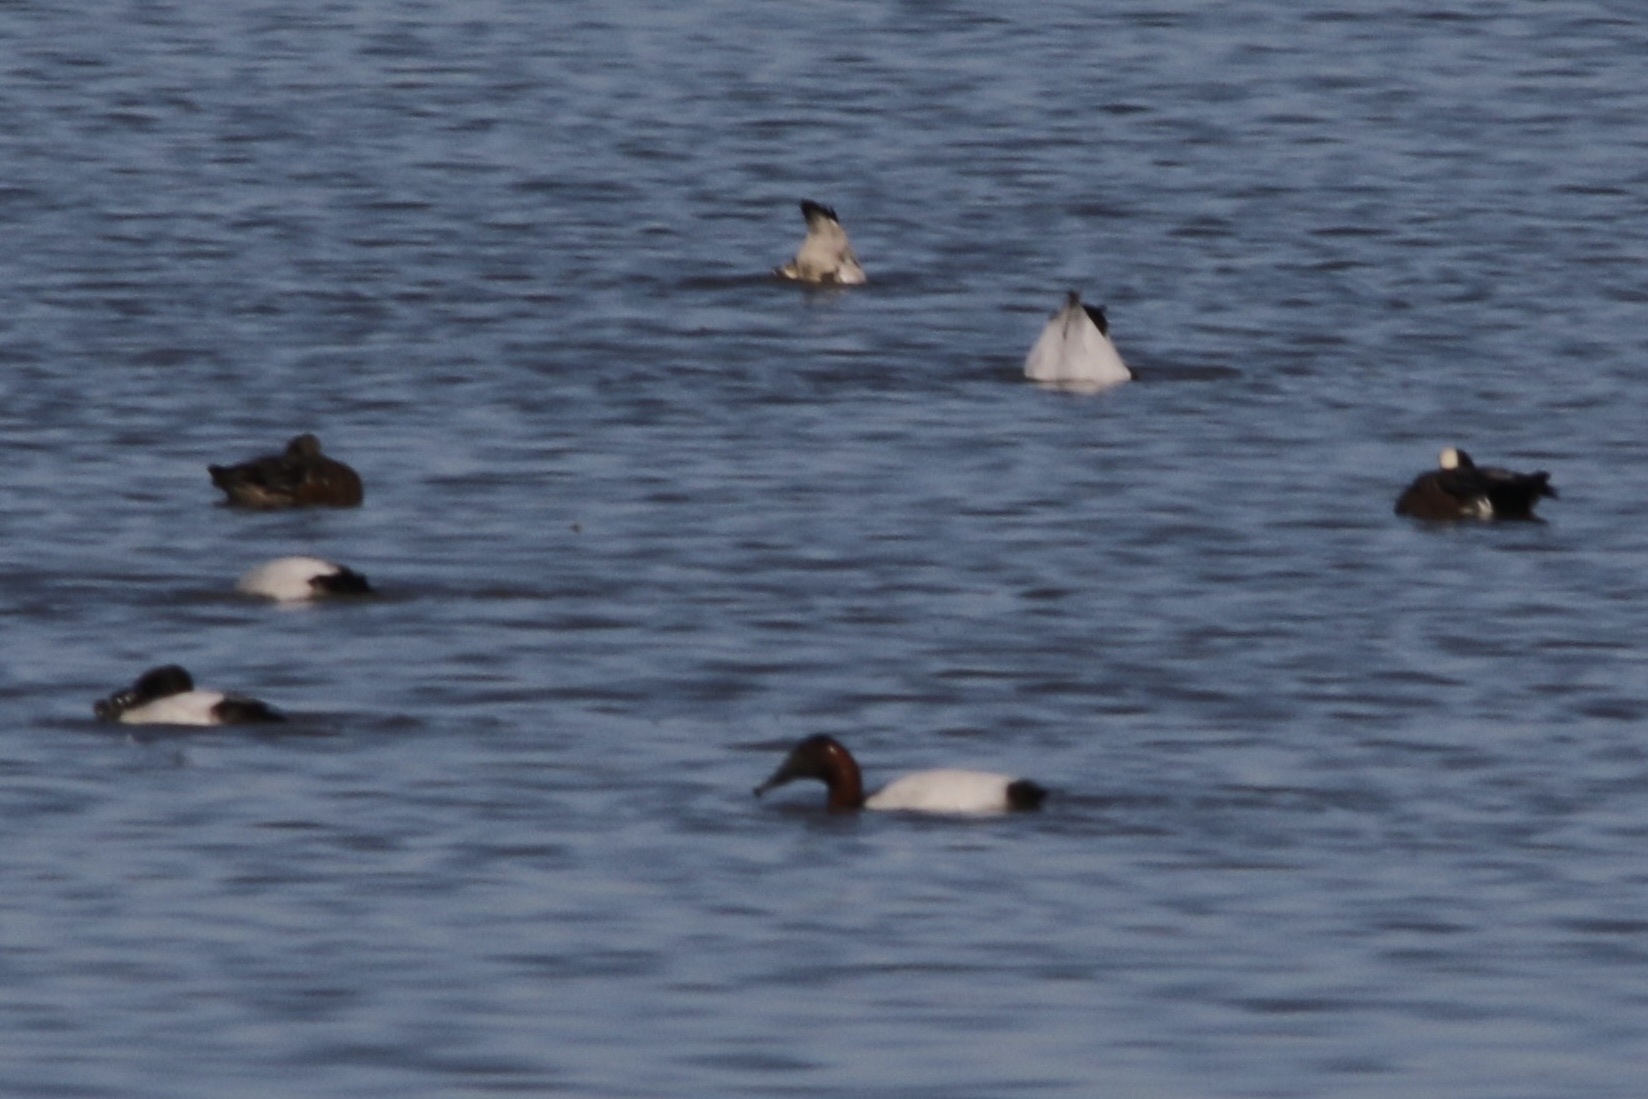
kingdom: Animalia
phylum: Chordata
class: Aves
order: Anseriformes
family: Anatidae
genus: Aythya
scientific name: Aythya valisineria
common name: Canvasback
